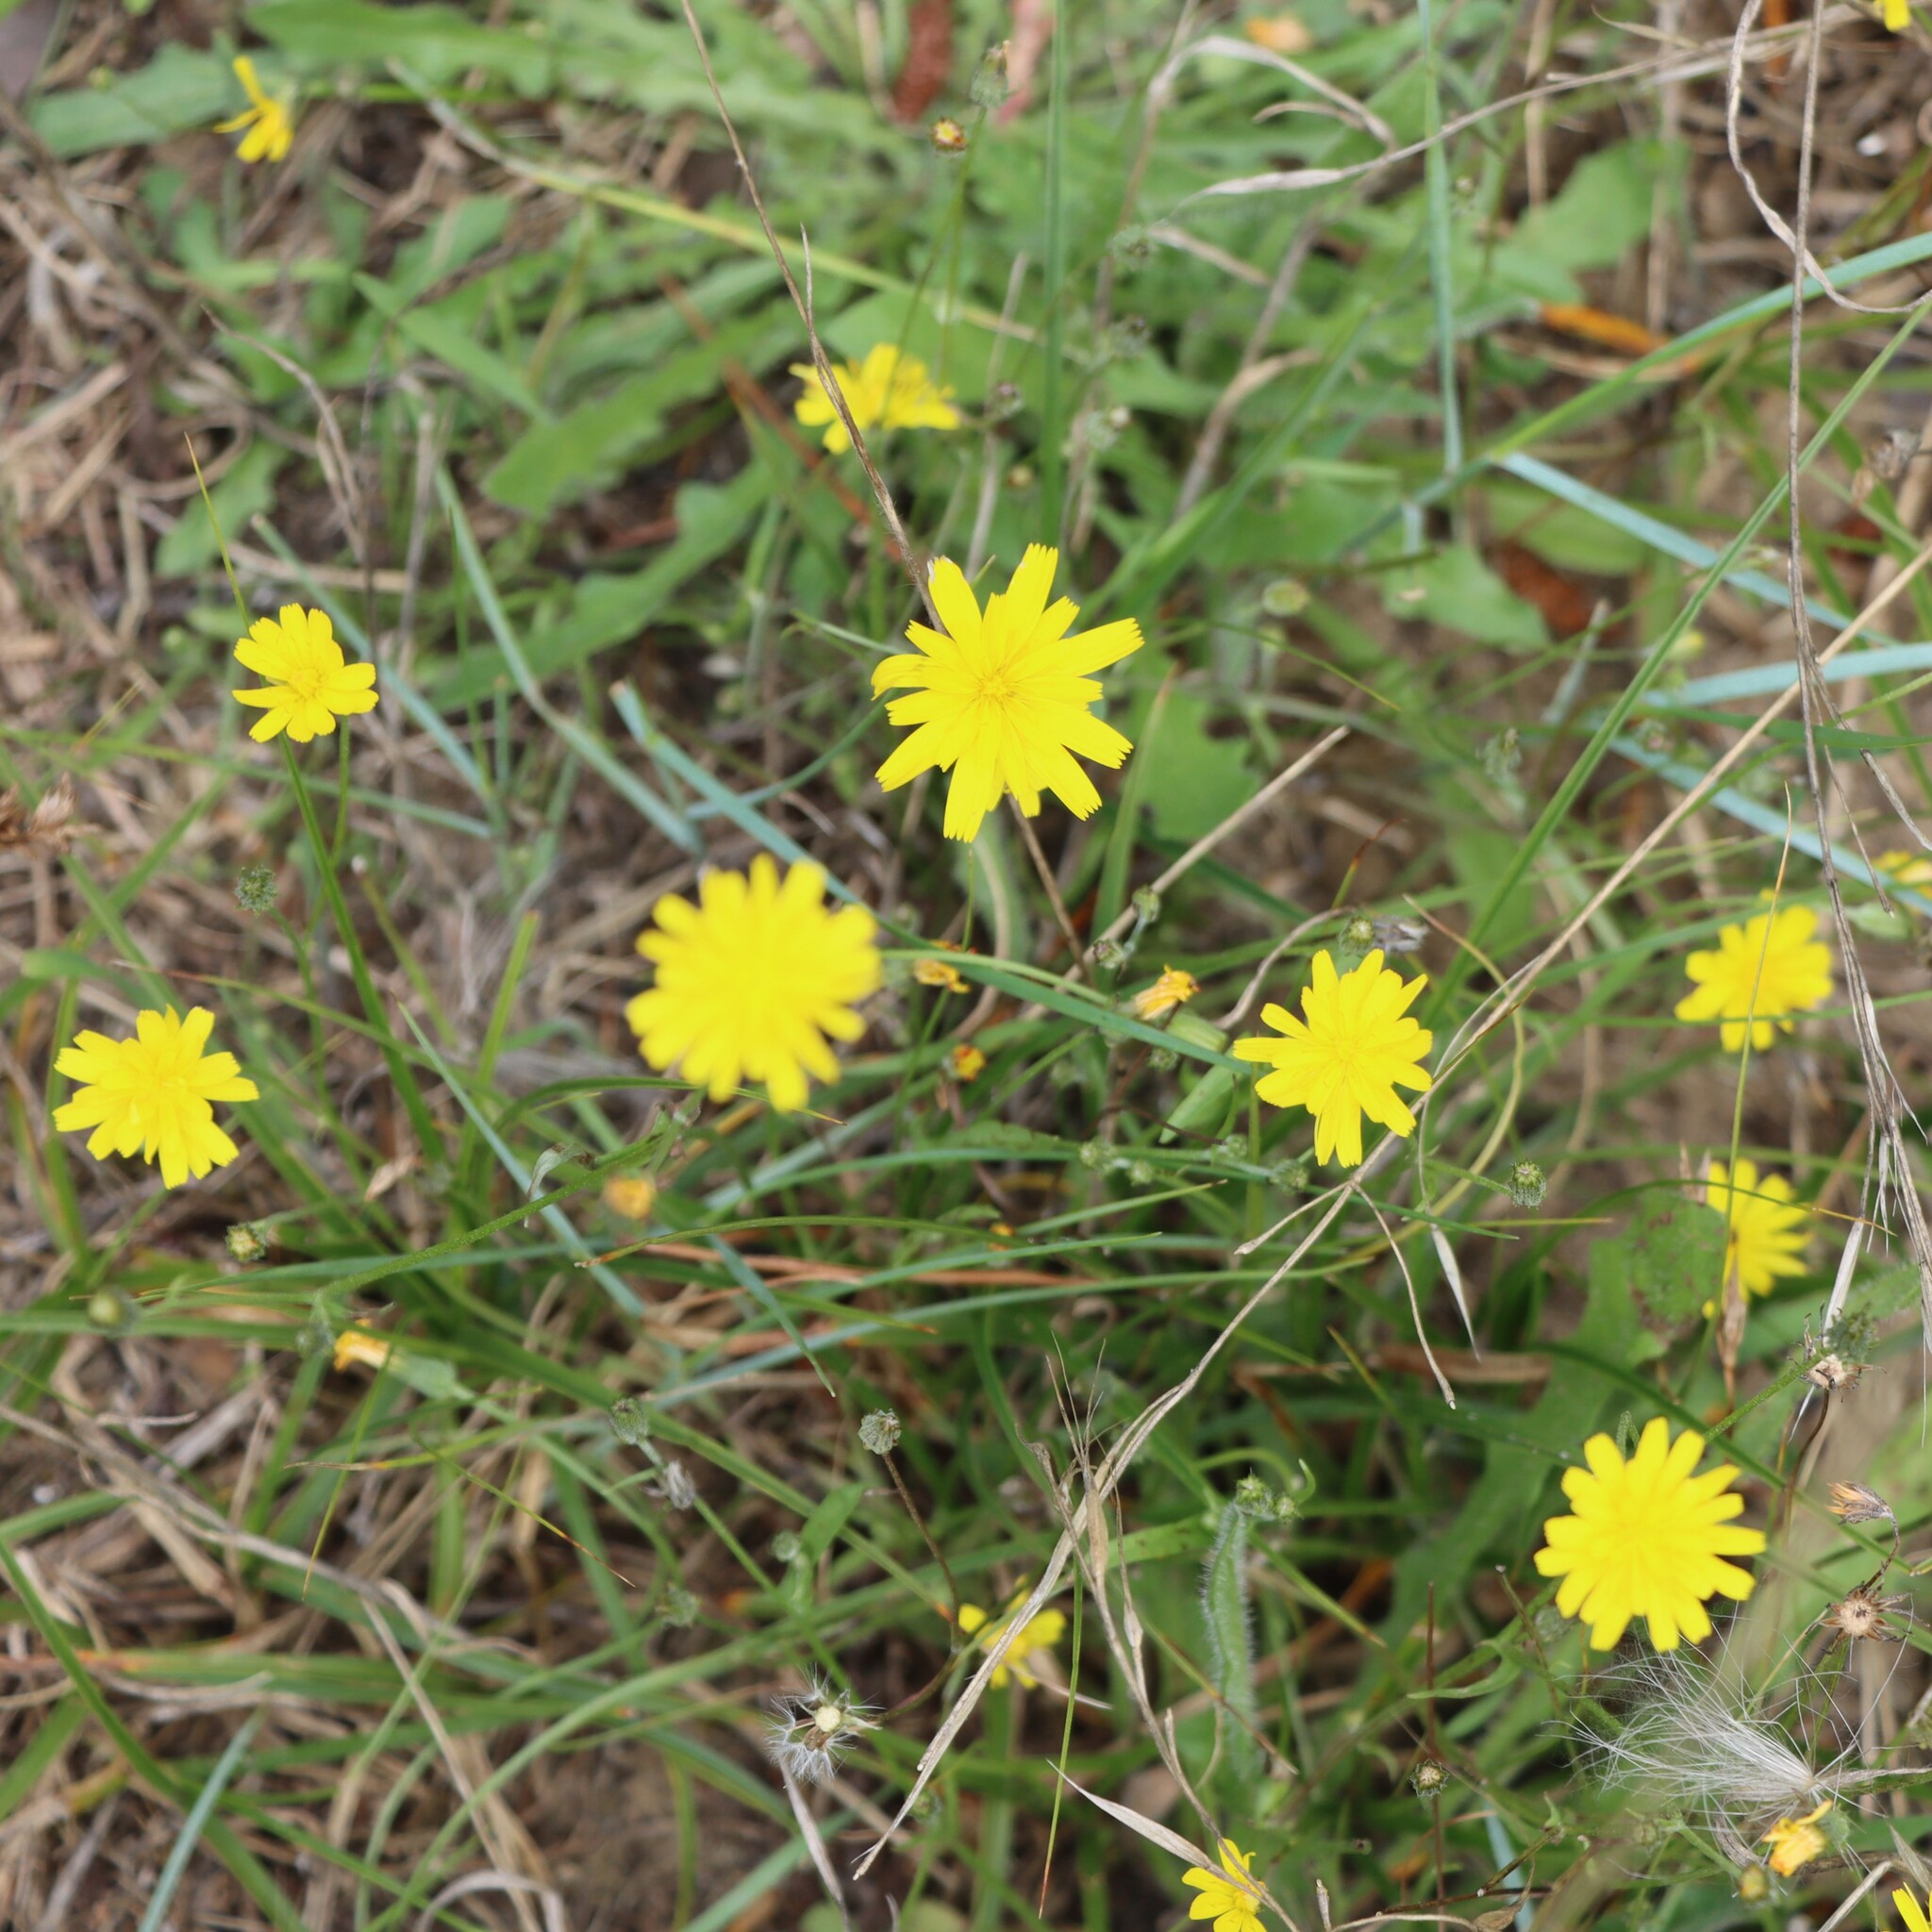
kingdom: Plantae
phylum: Tracheophyta
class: Magnoliopsida
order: Asterales
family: Asteraceae
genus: Crepis
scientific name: Crepis capillaris
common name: Smooth hawksbeard
